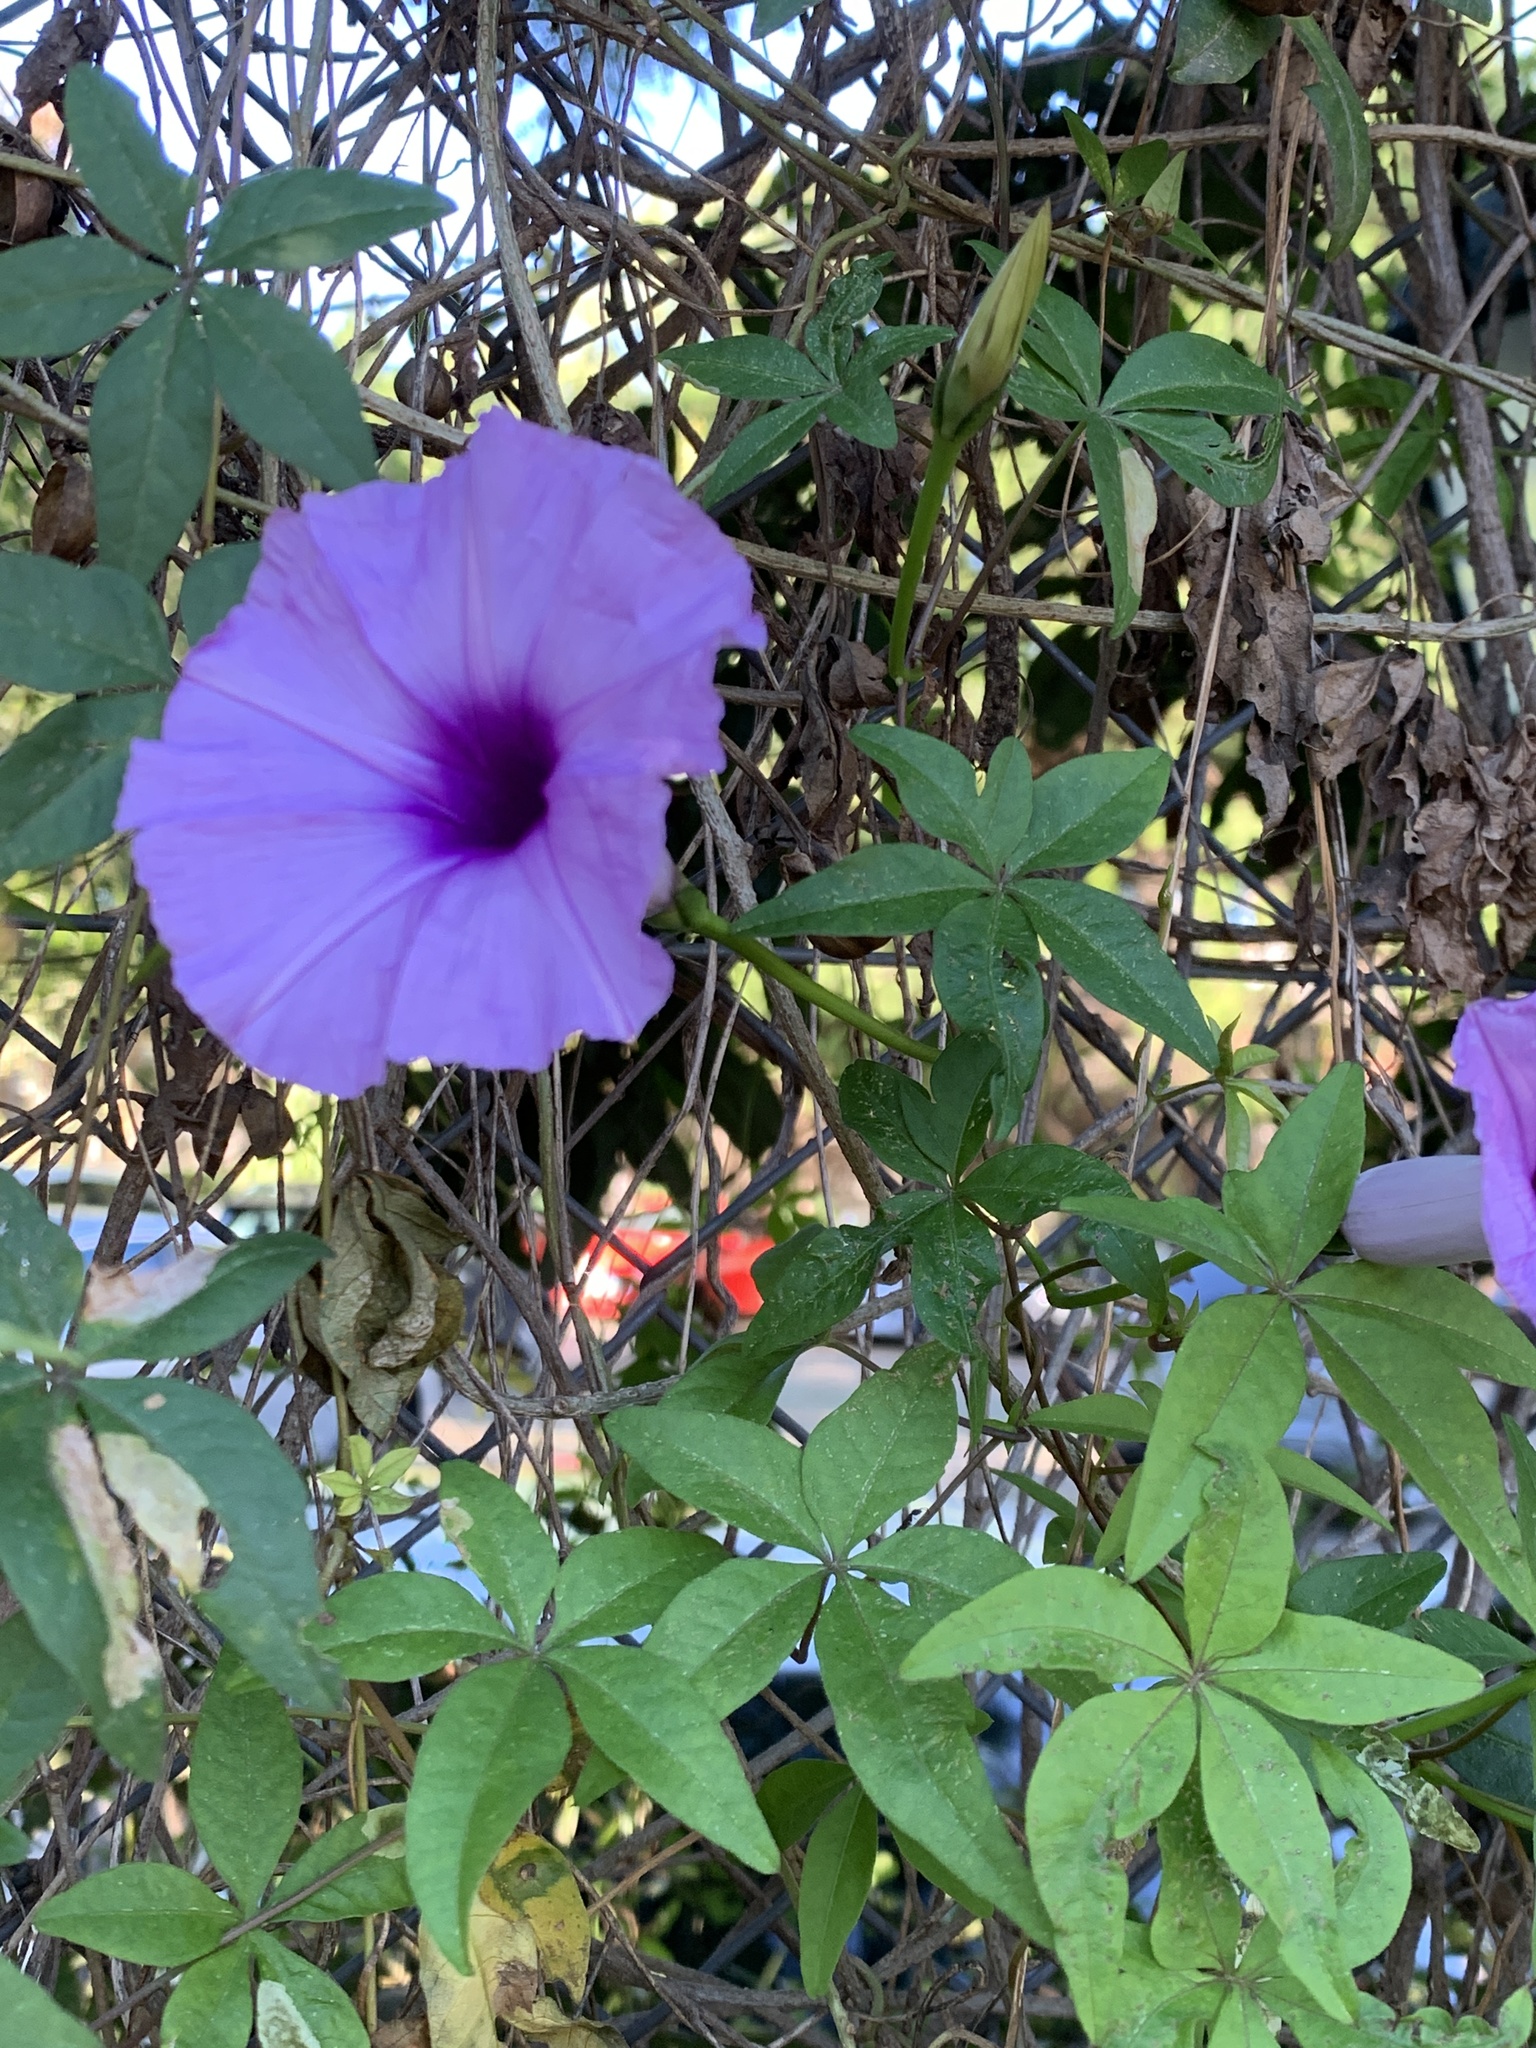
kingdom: Plantae
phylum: Tracheophyta
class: Magnoliopsida
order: Solanales
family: Convolvulaceae
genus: Ipomoea
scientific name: Ipomoea cairica
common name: Mile a minute vine
